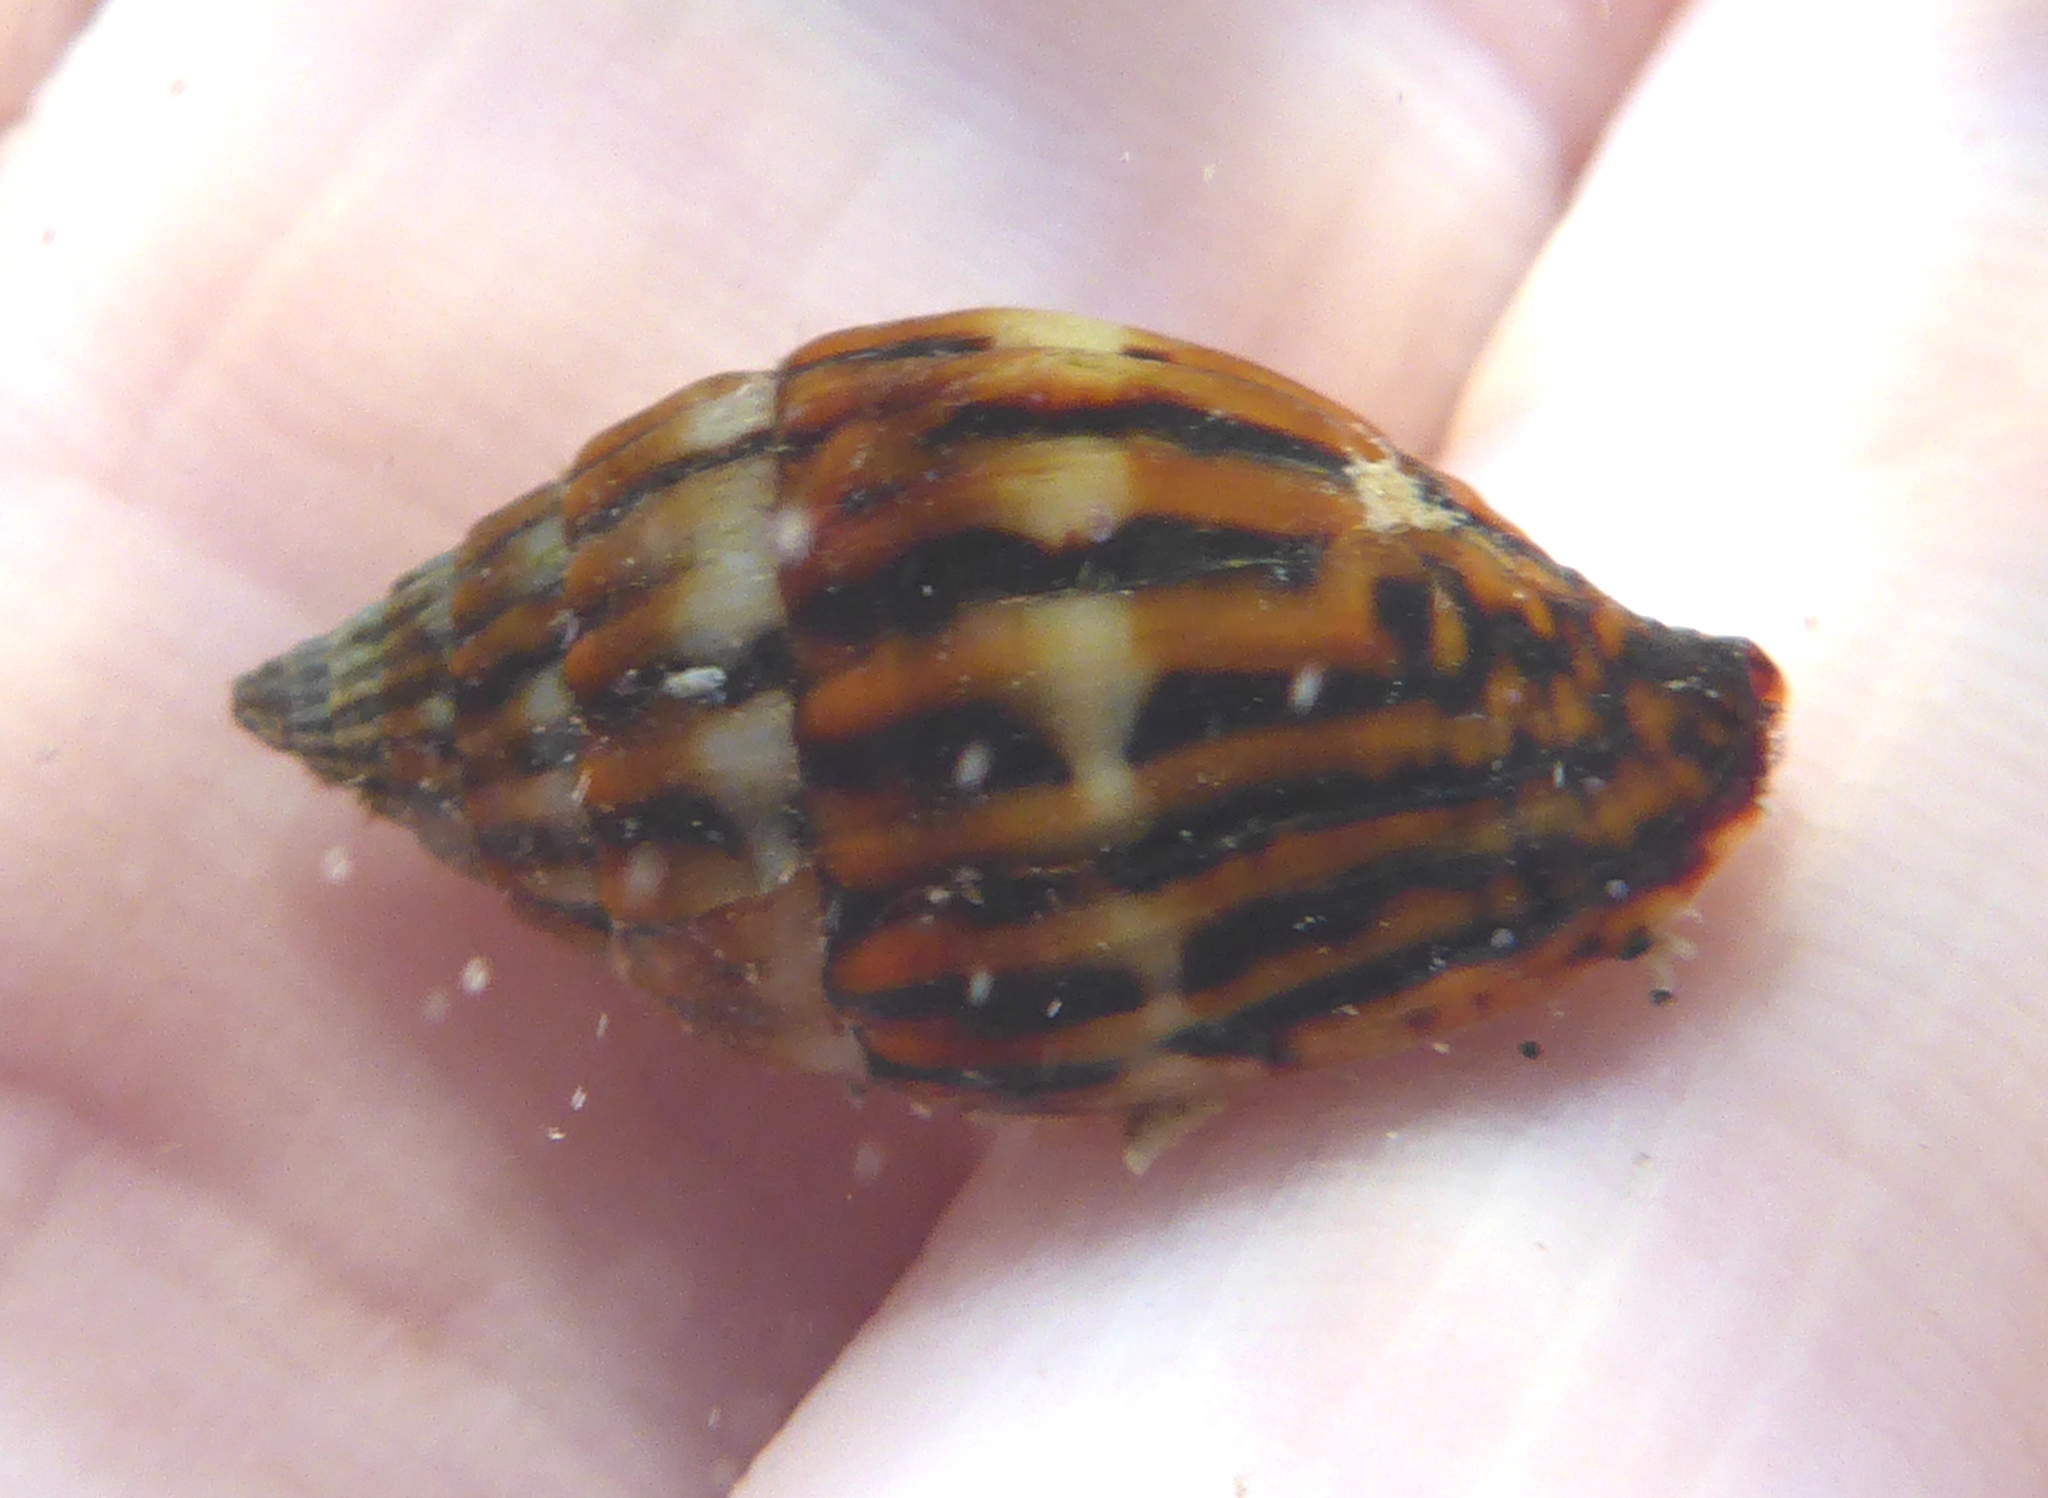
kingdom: Animalia
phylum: Mollusca
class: Gastropoda
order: Neogastropoda
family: Costellariidae
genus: Vexillum
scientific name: Vexillum adamsi
